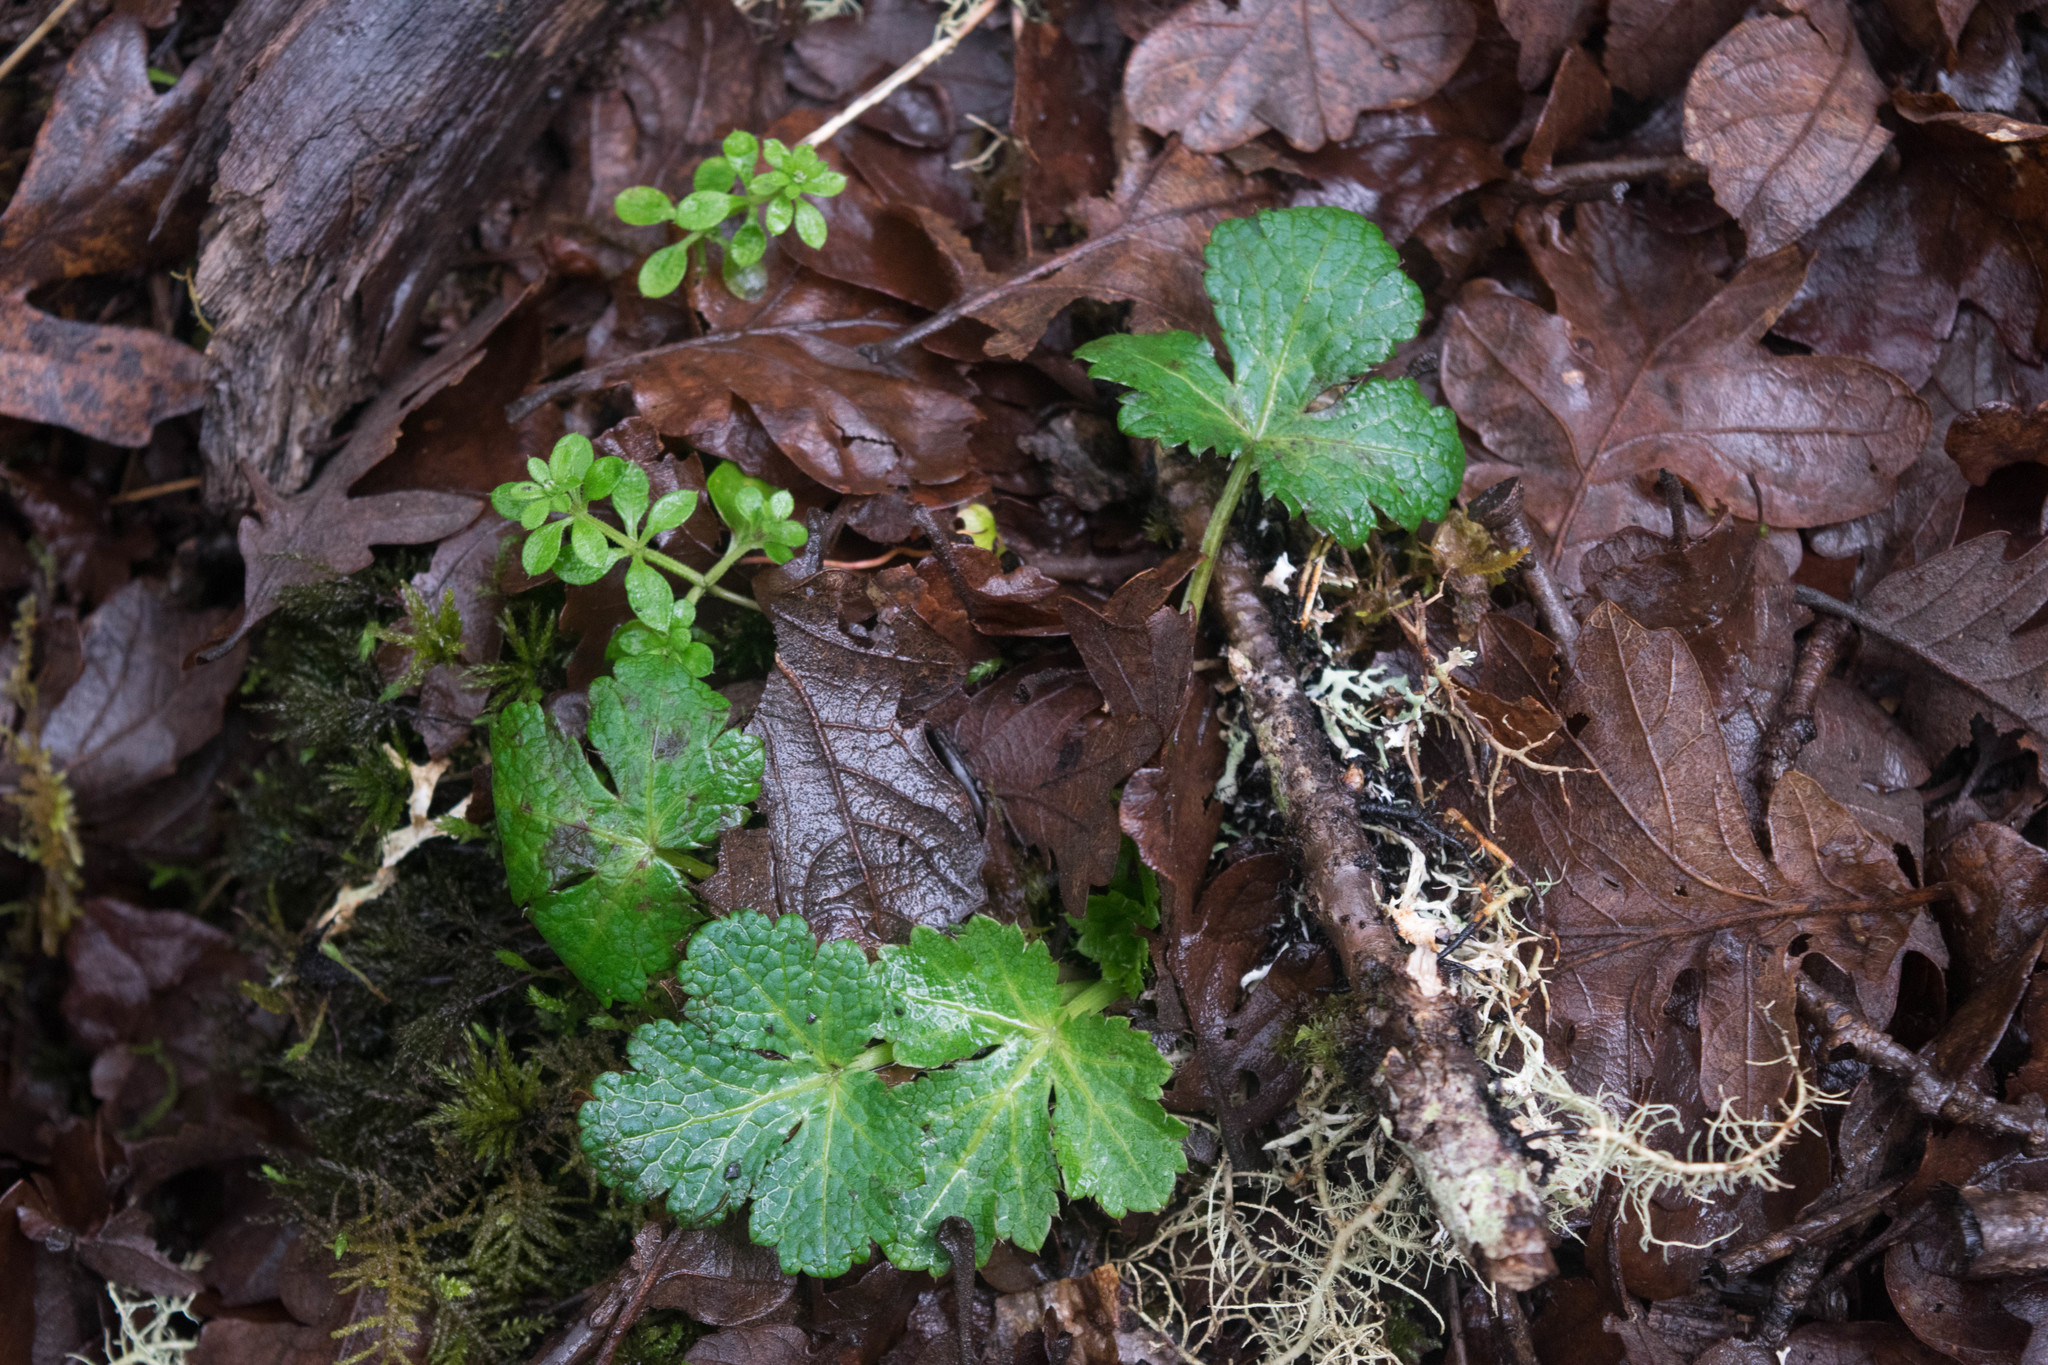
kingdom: Plantae
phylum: Tracheophyta
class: Magnoliopsida
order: Apiales
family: Apiaceae
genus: Sanicula
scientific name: Sanicula crassicaulis
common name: Western snakeroot
